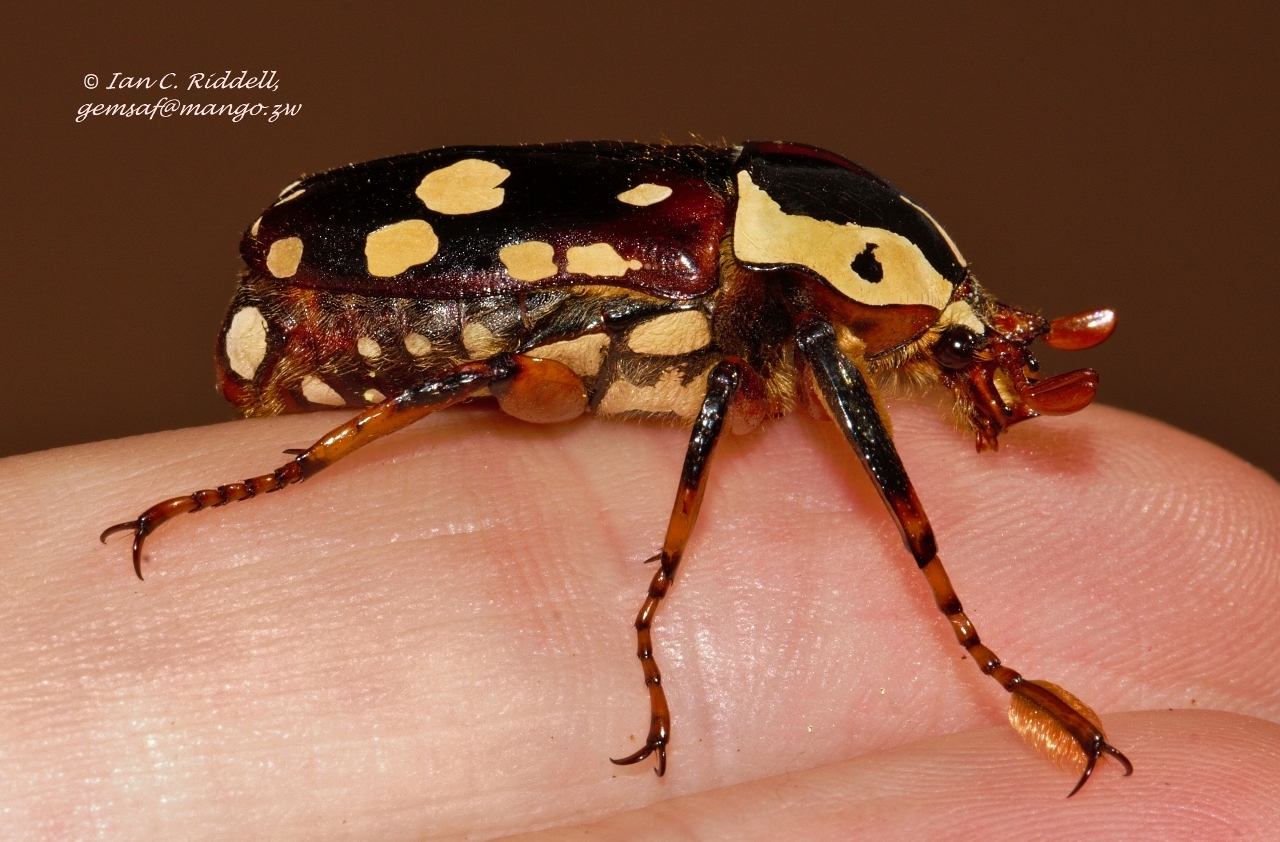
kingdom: Animalia
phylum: Arthropoda
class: Insecta
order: Coleoptera
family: Scarabaeidae
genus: Cheirolasia
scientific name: Cheirolasia burkei
